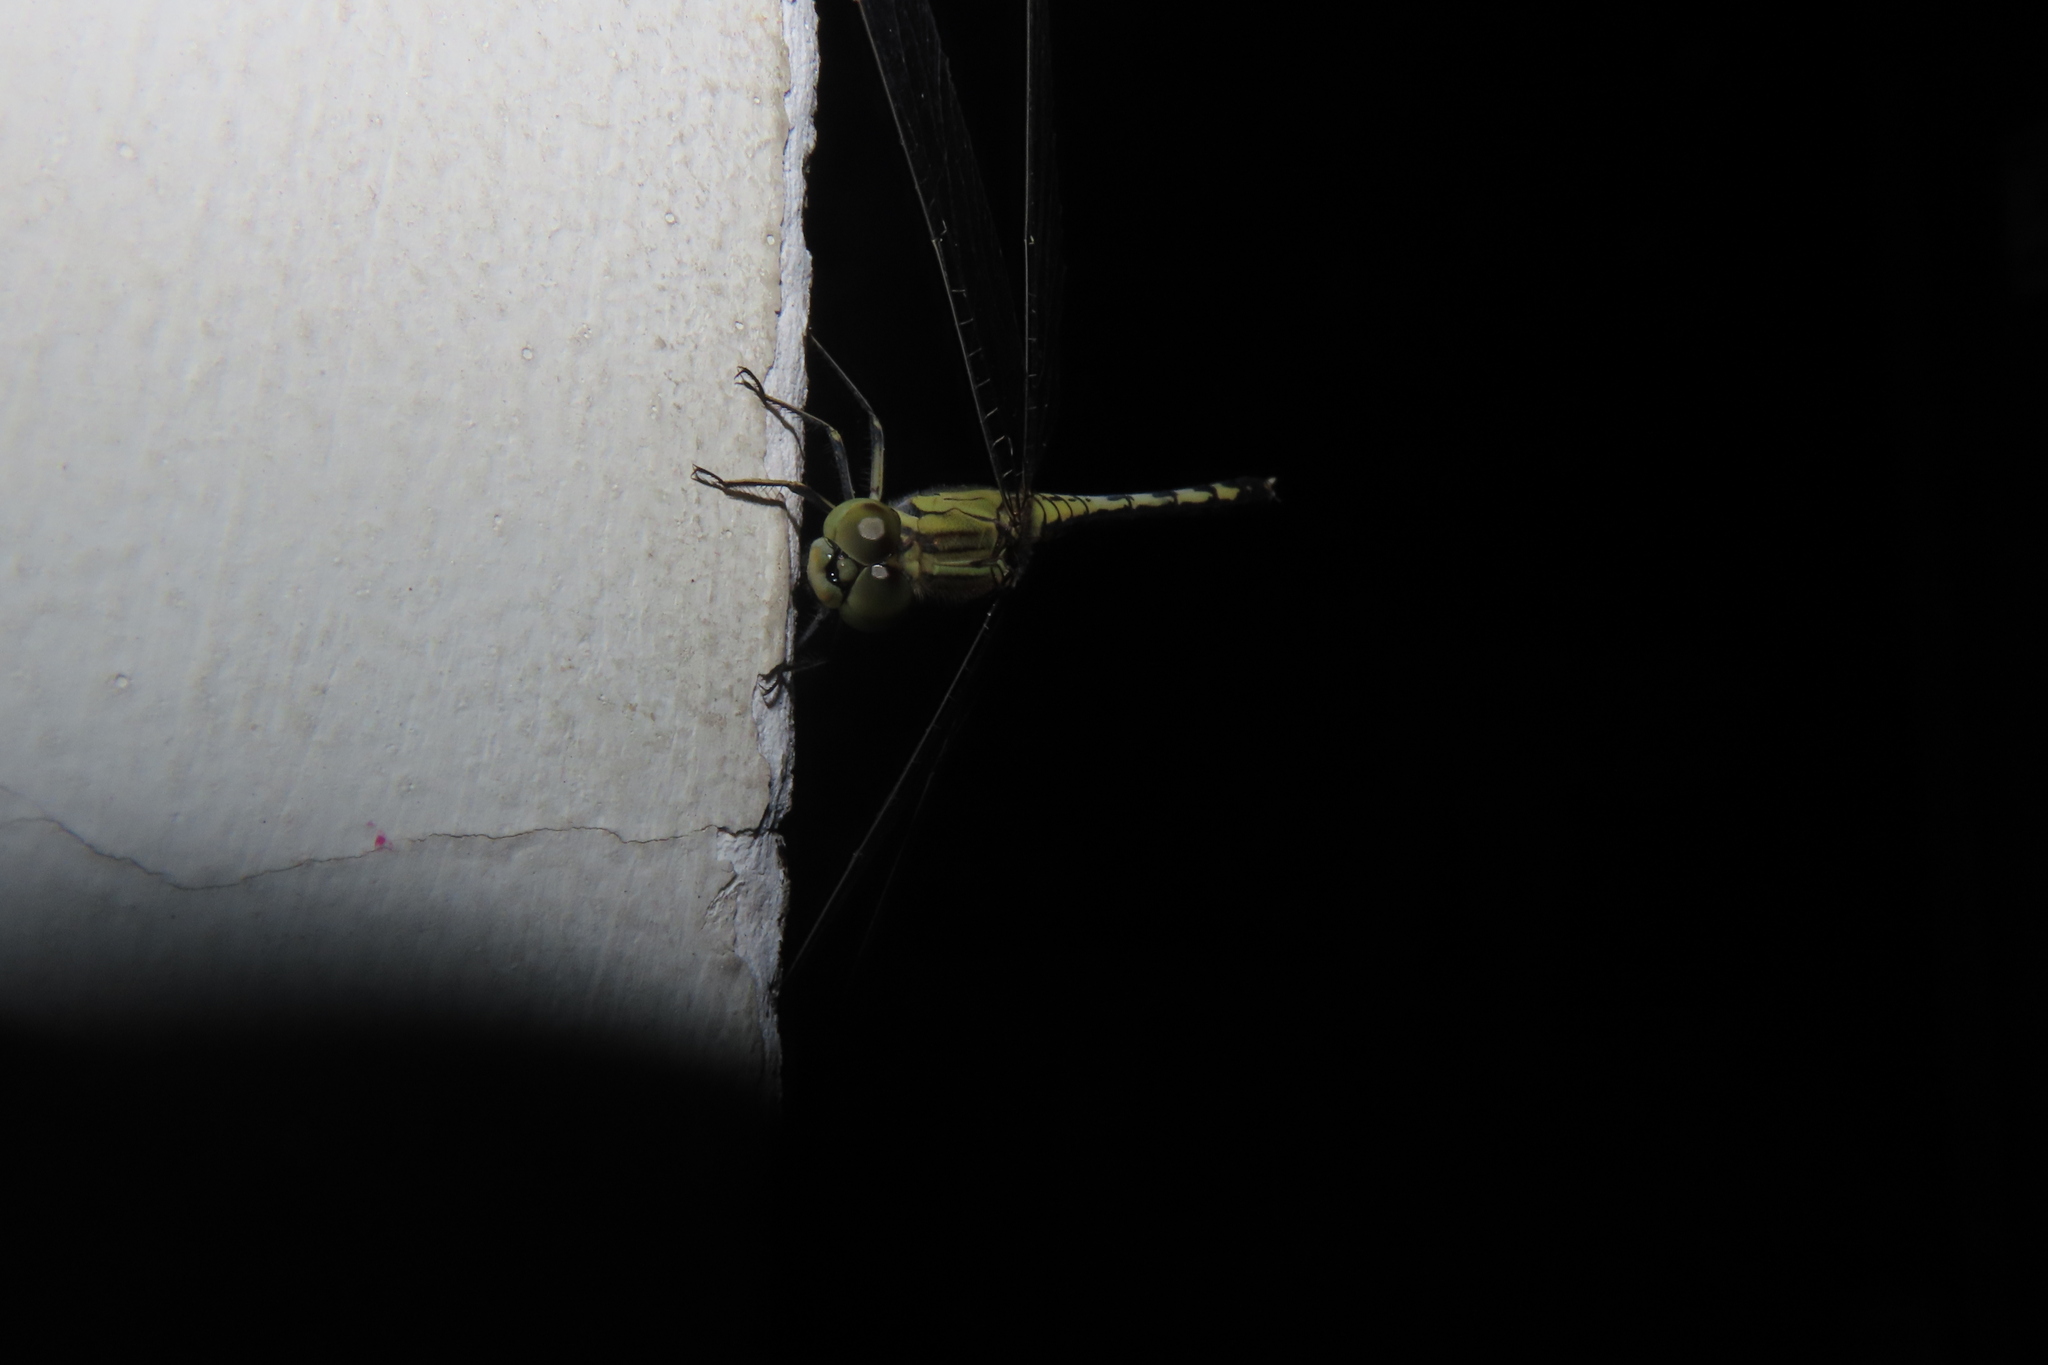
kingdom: Animalia
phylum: Arthropoda
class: Insecta
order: Odonata
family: Libellulidae
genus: Diplacodes
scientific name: Diplacodes trivialis
